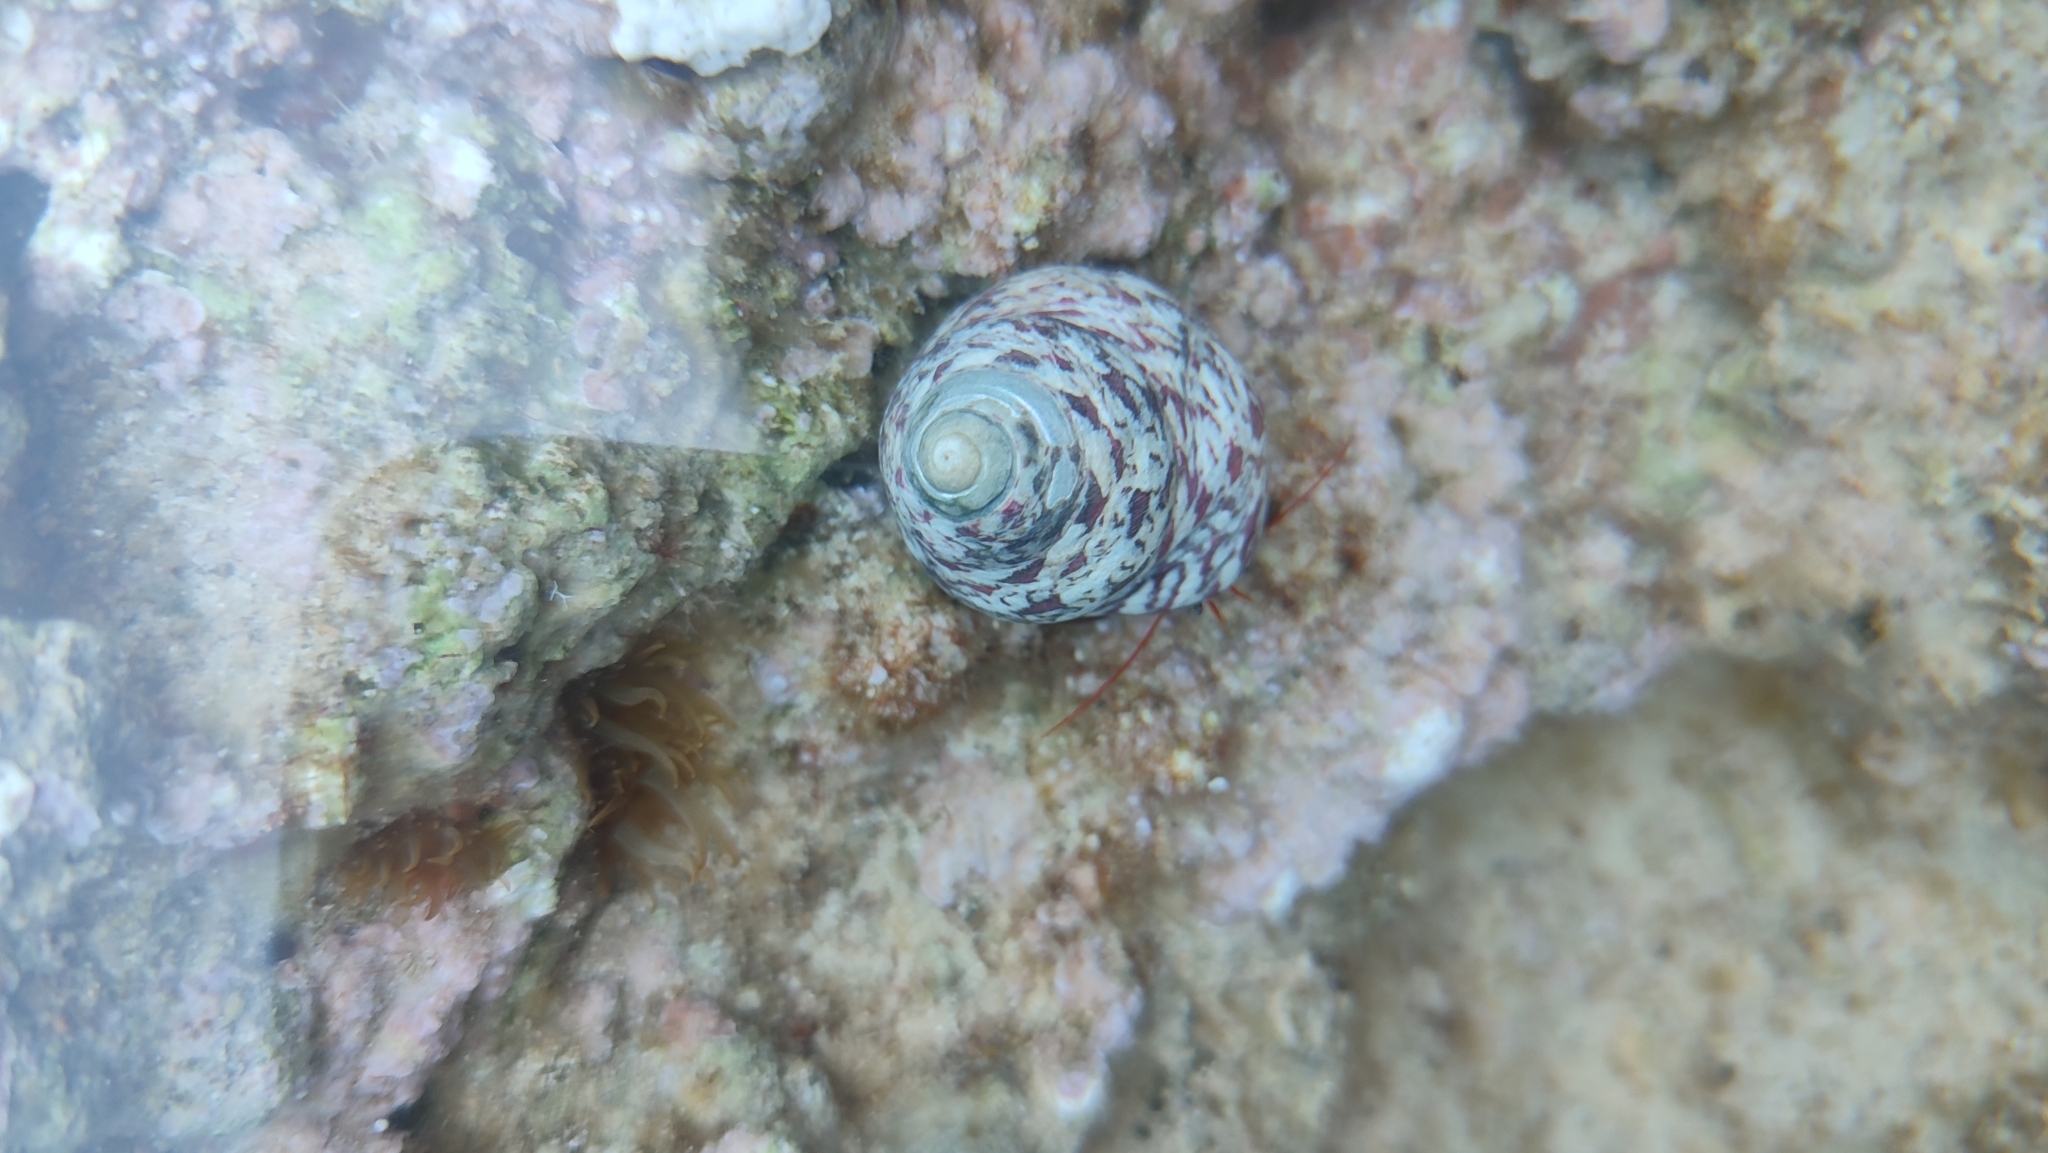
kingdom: Animalia
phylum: Mollusca
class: Gastropoda
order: Trochida
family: Trochidae
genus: Phorcus
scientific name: Phorcus articulatus
